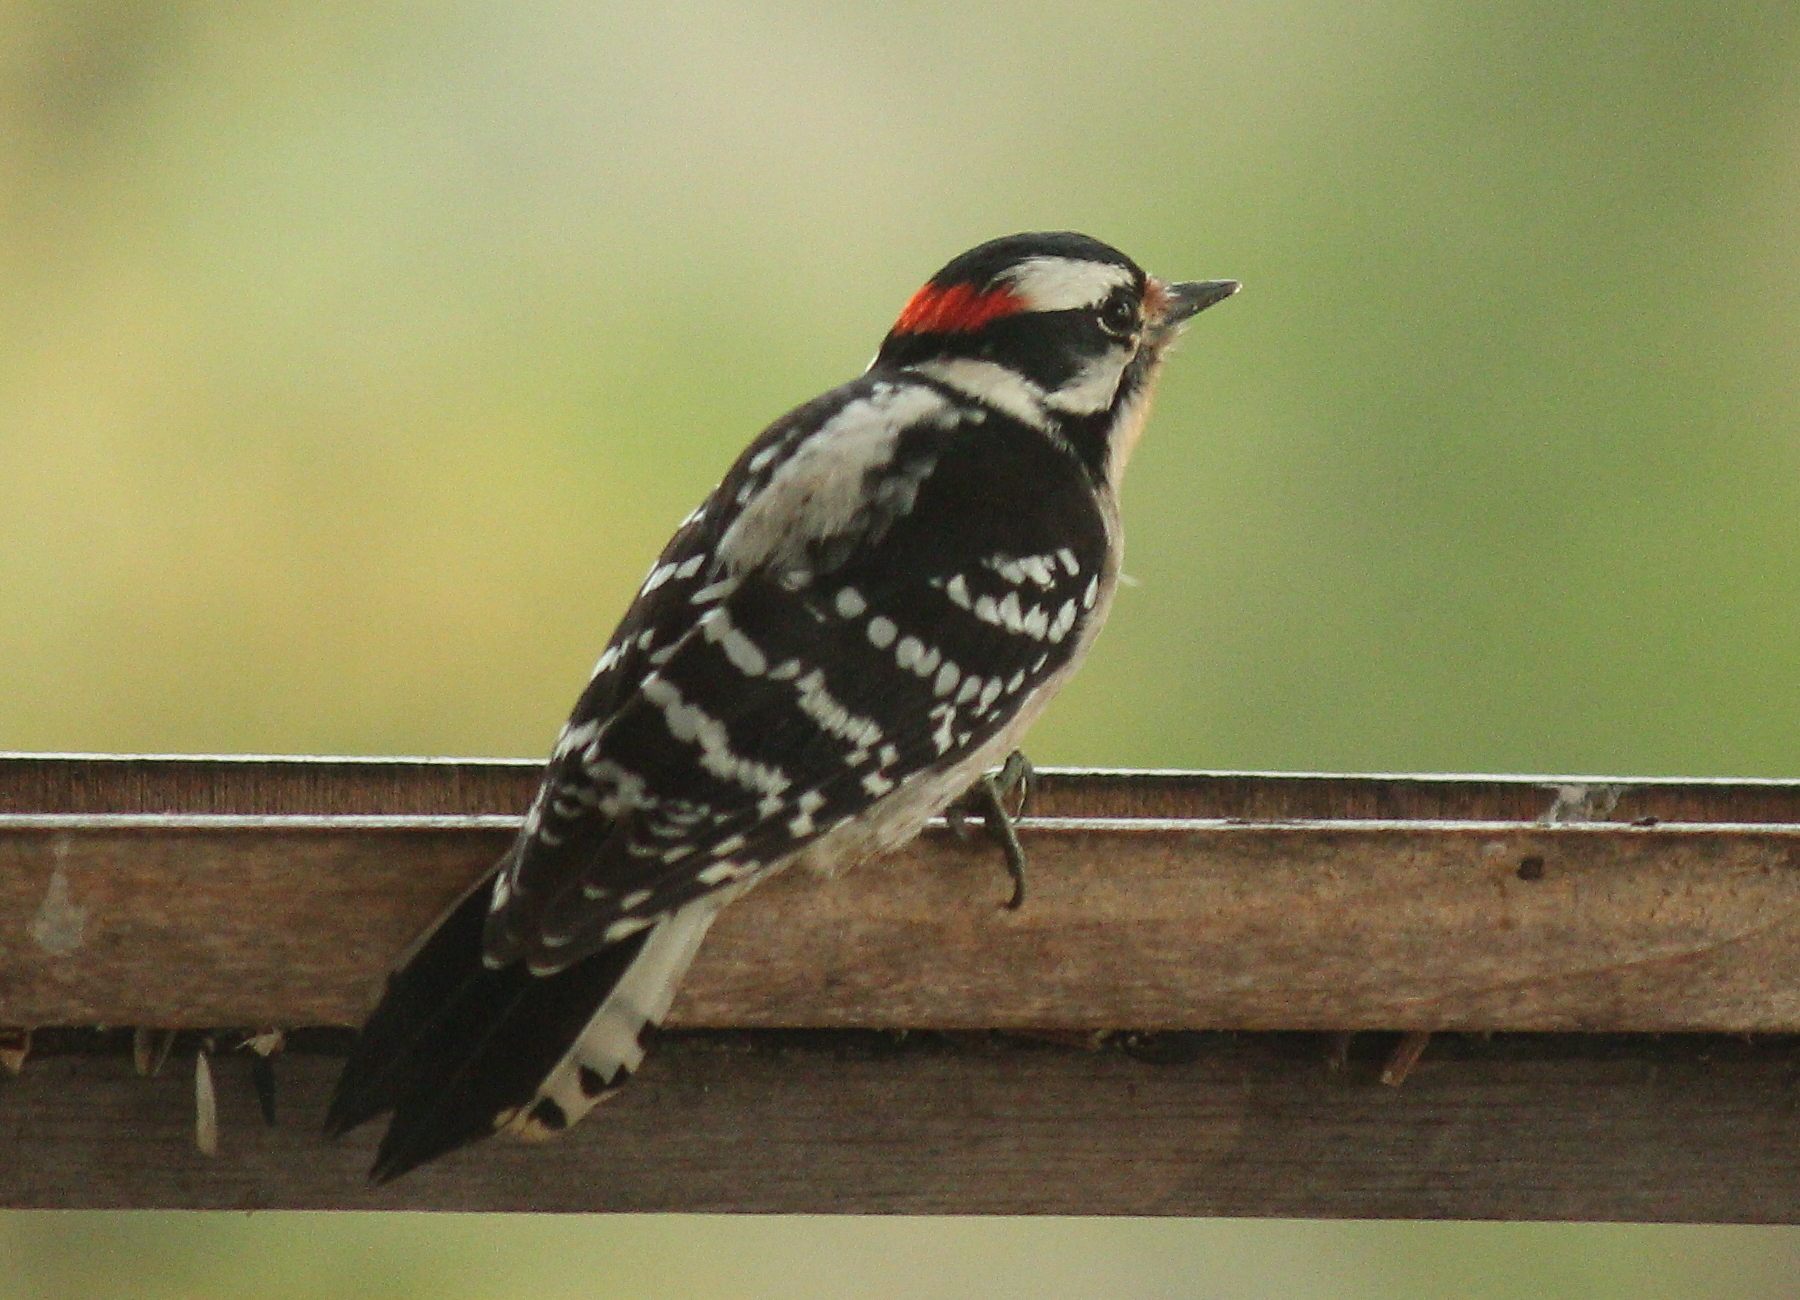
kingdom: Animalia
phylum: Chordata
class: Aves
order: Piciformes
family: Picidae
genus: Dryobates
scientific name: Dryobates pubescens
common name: Downy woodpecker
